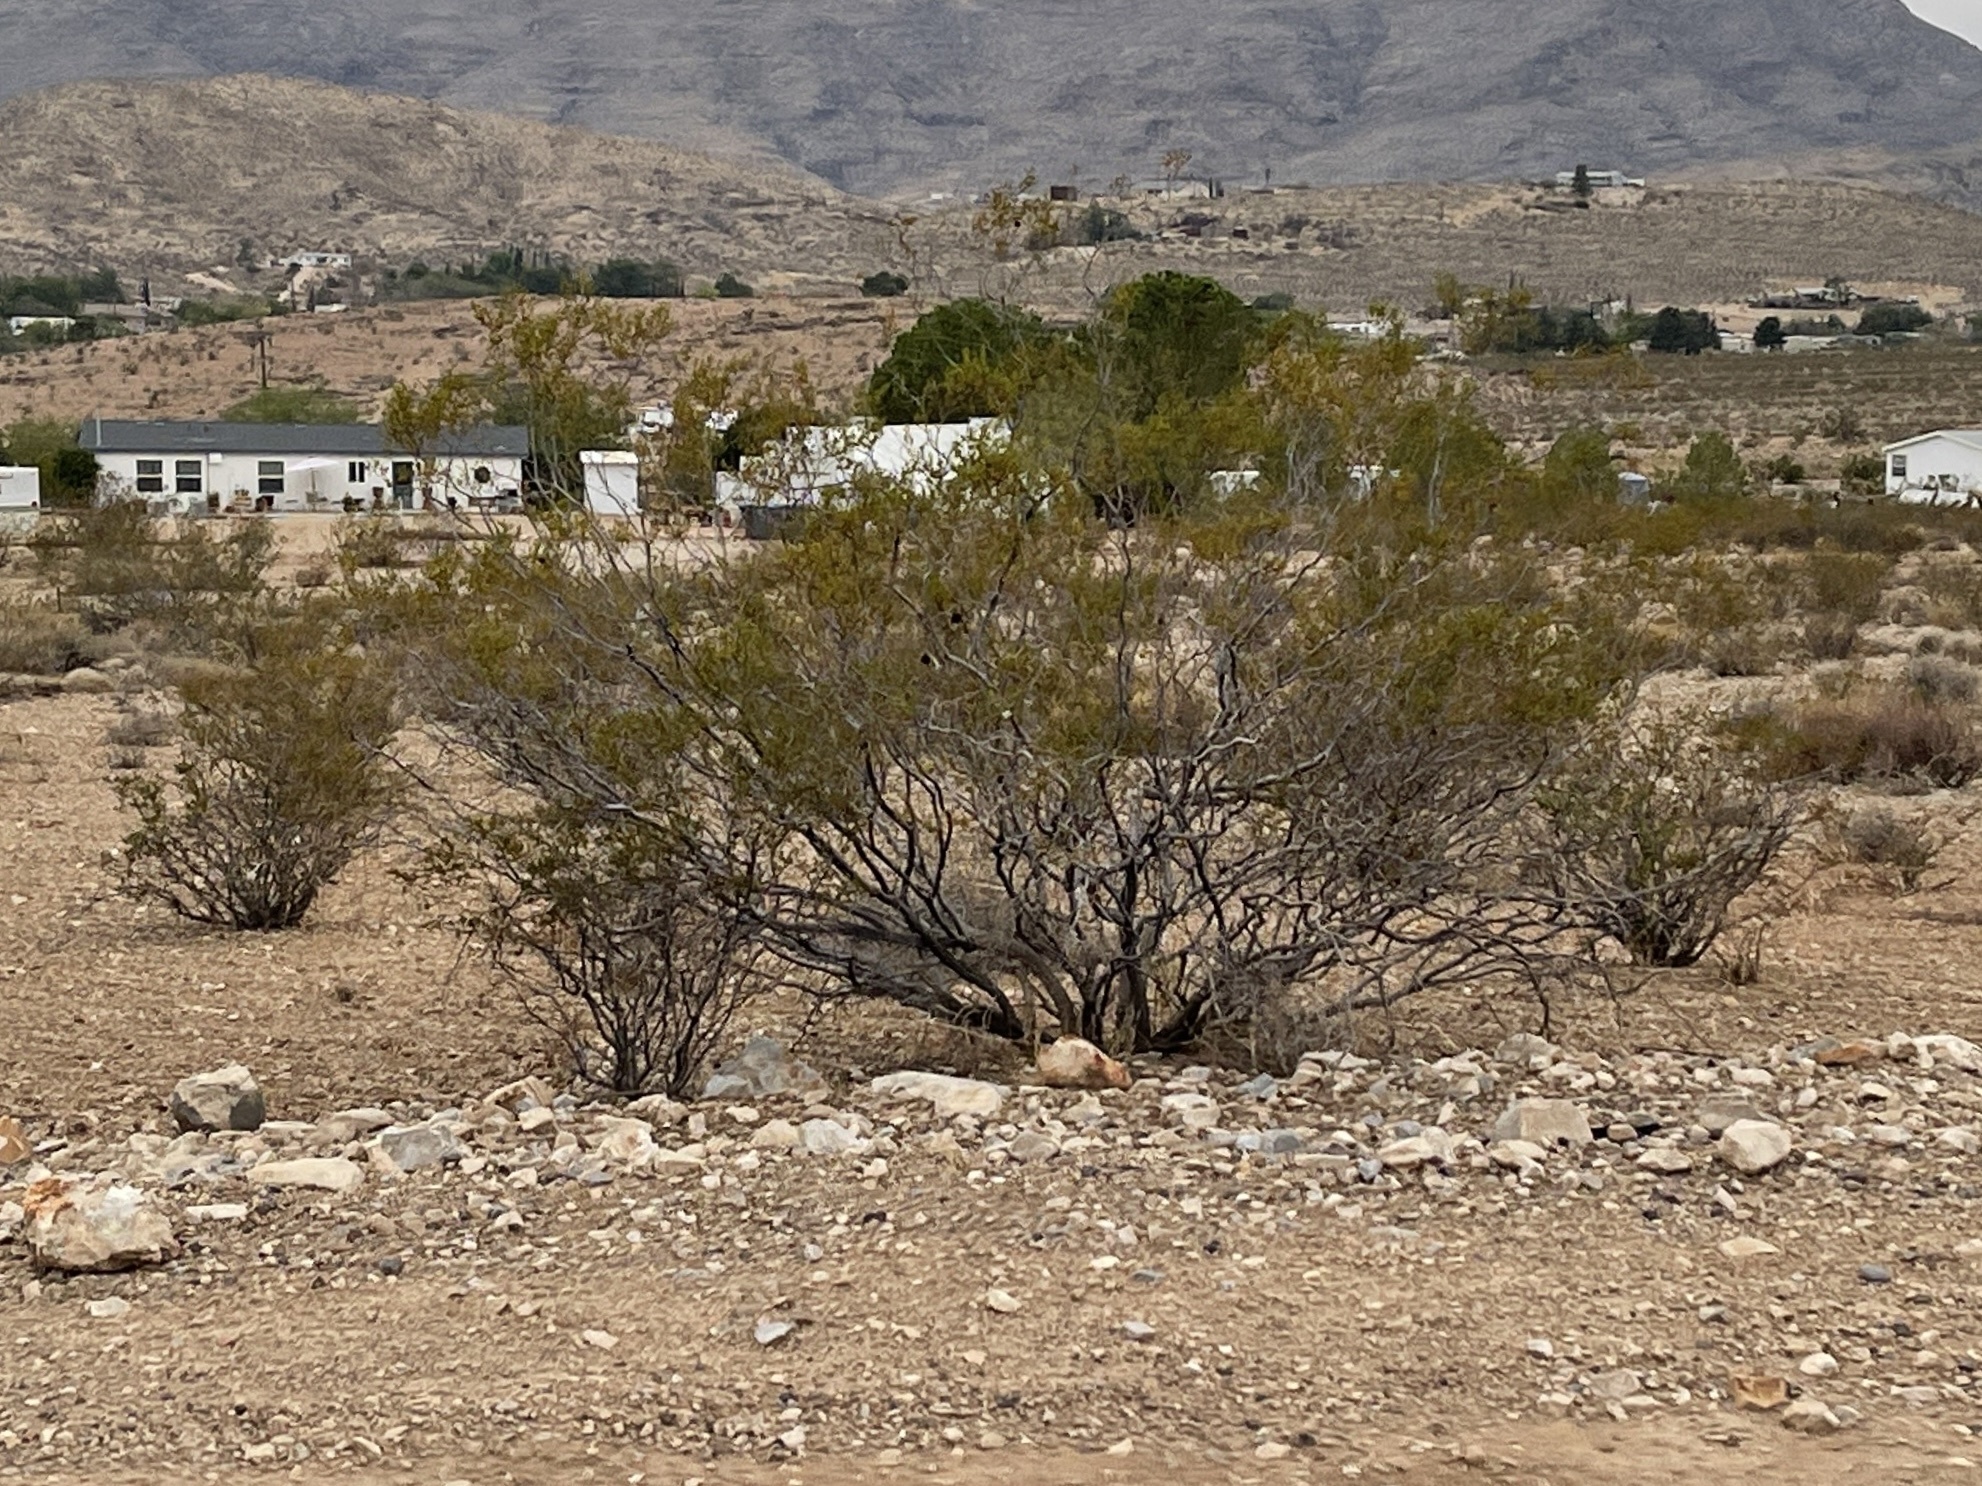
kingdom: Plantae
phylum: Tracheophyta
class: Magnoliopsida
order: Zygophyllales
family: Zygophyllaceae
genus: Larrea
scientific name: Larrea tridentata
